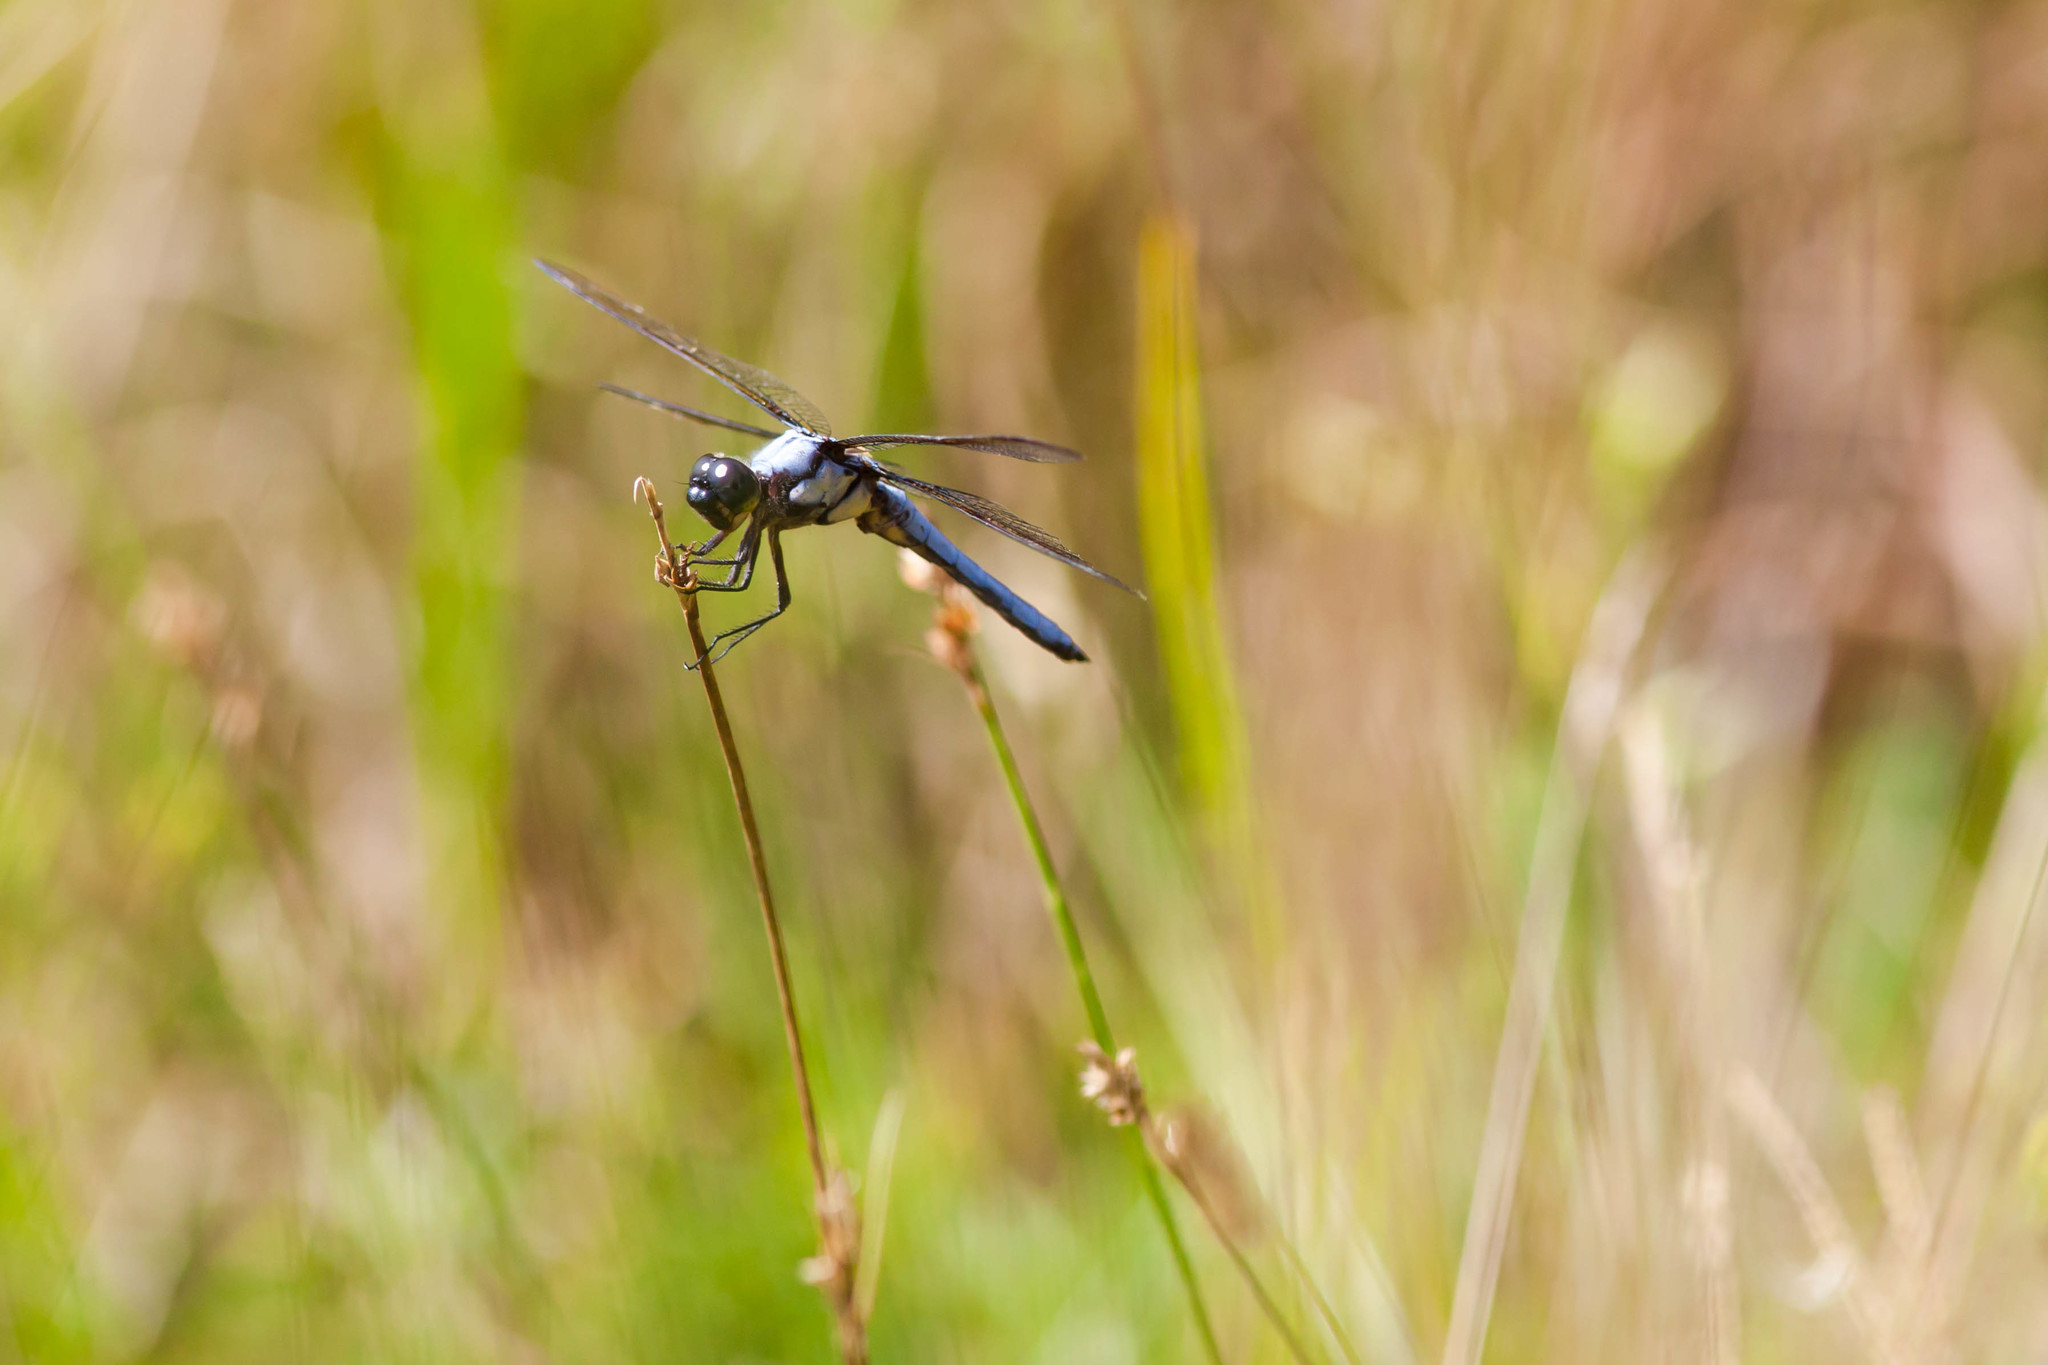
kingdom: Animalia
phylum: Arthropoda
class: Insecta
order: Odonata
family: Libellulidae
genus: Libellula
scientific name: Libellula flavida
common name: Yellow-sided skimmer
